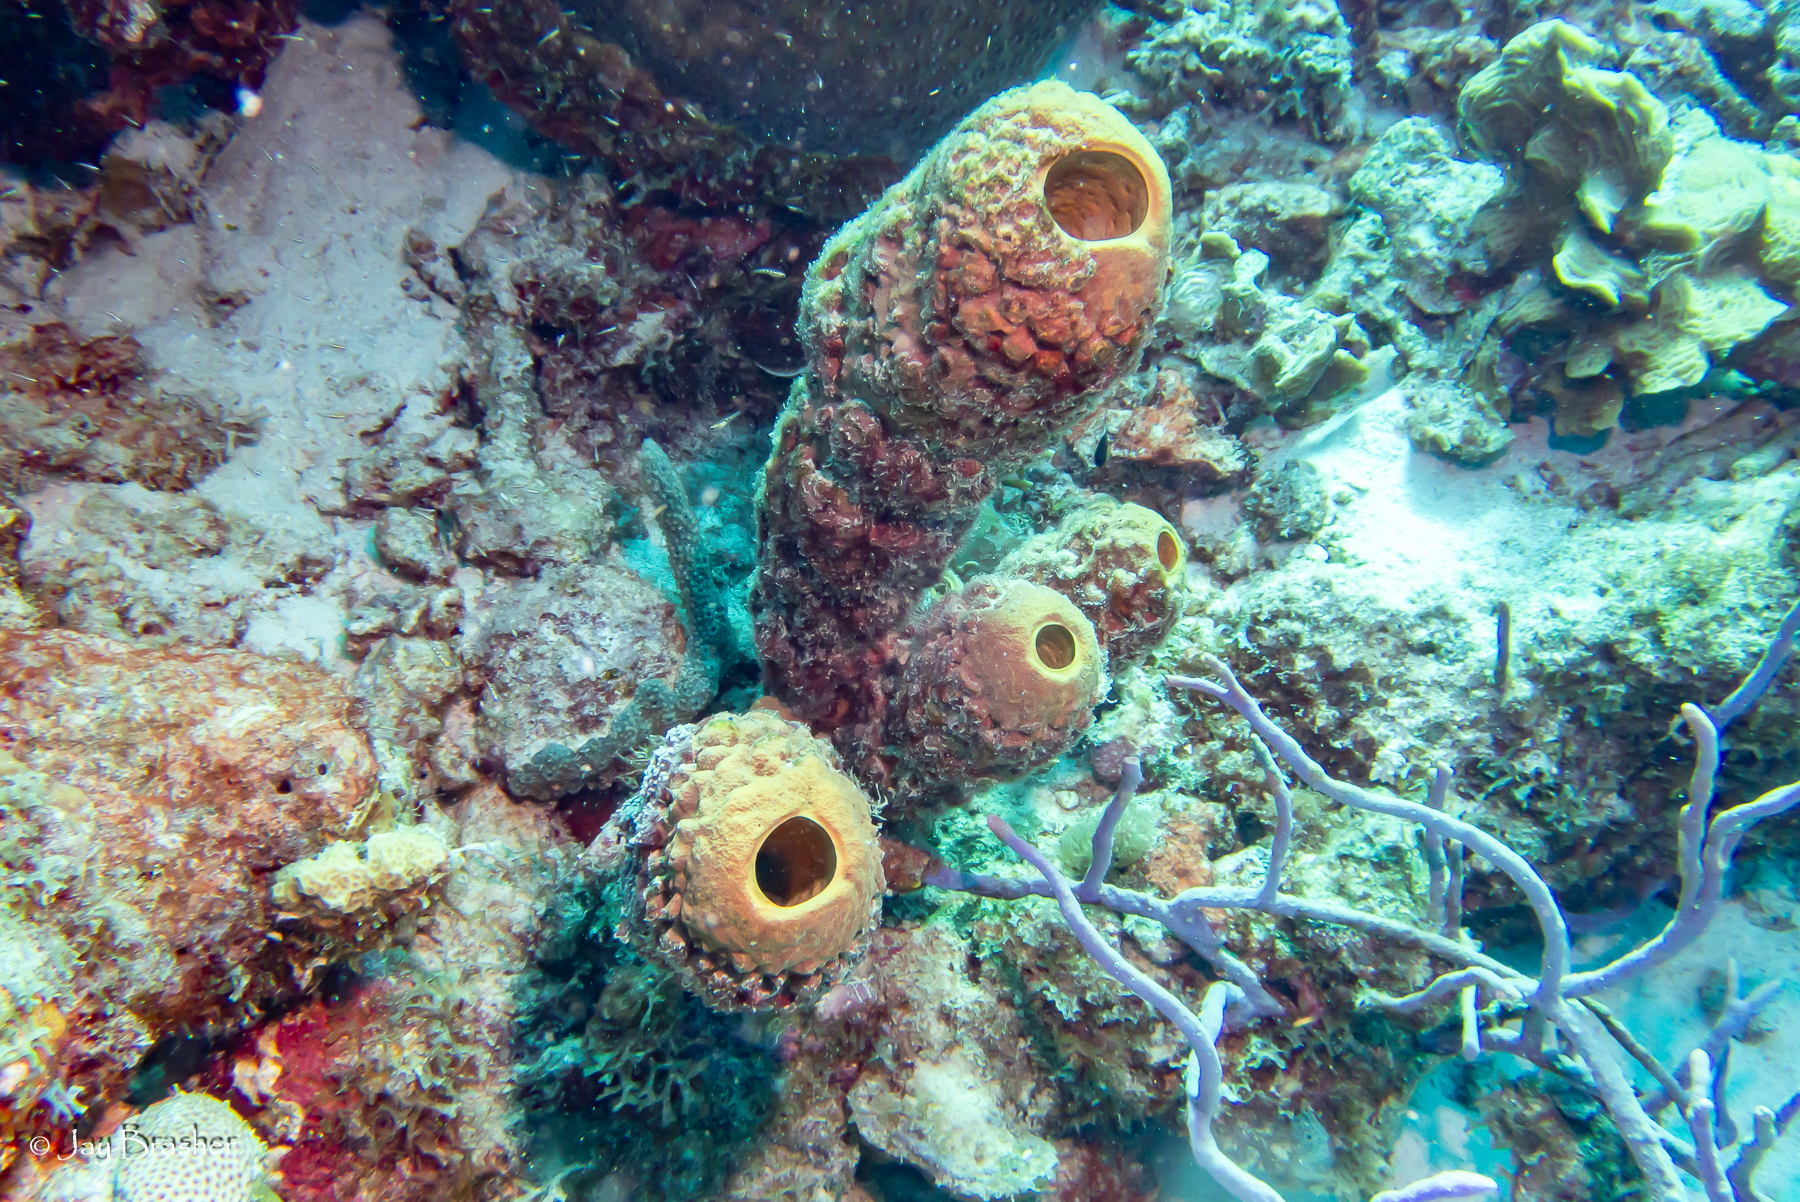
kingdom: Animalia
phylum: Porifera
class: Demospongiae
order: Verongiida
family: Aplysinidae
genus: Aplysina
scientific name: Aplysina archeri
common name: Stove-pipe sponge
